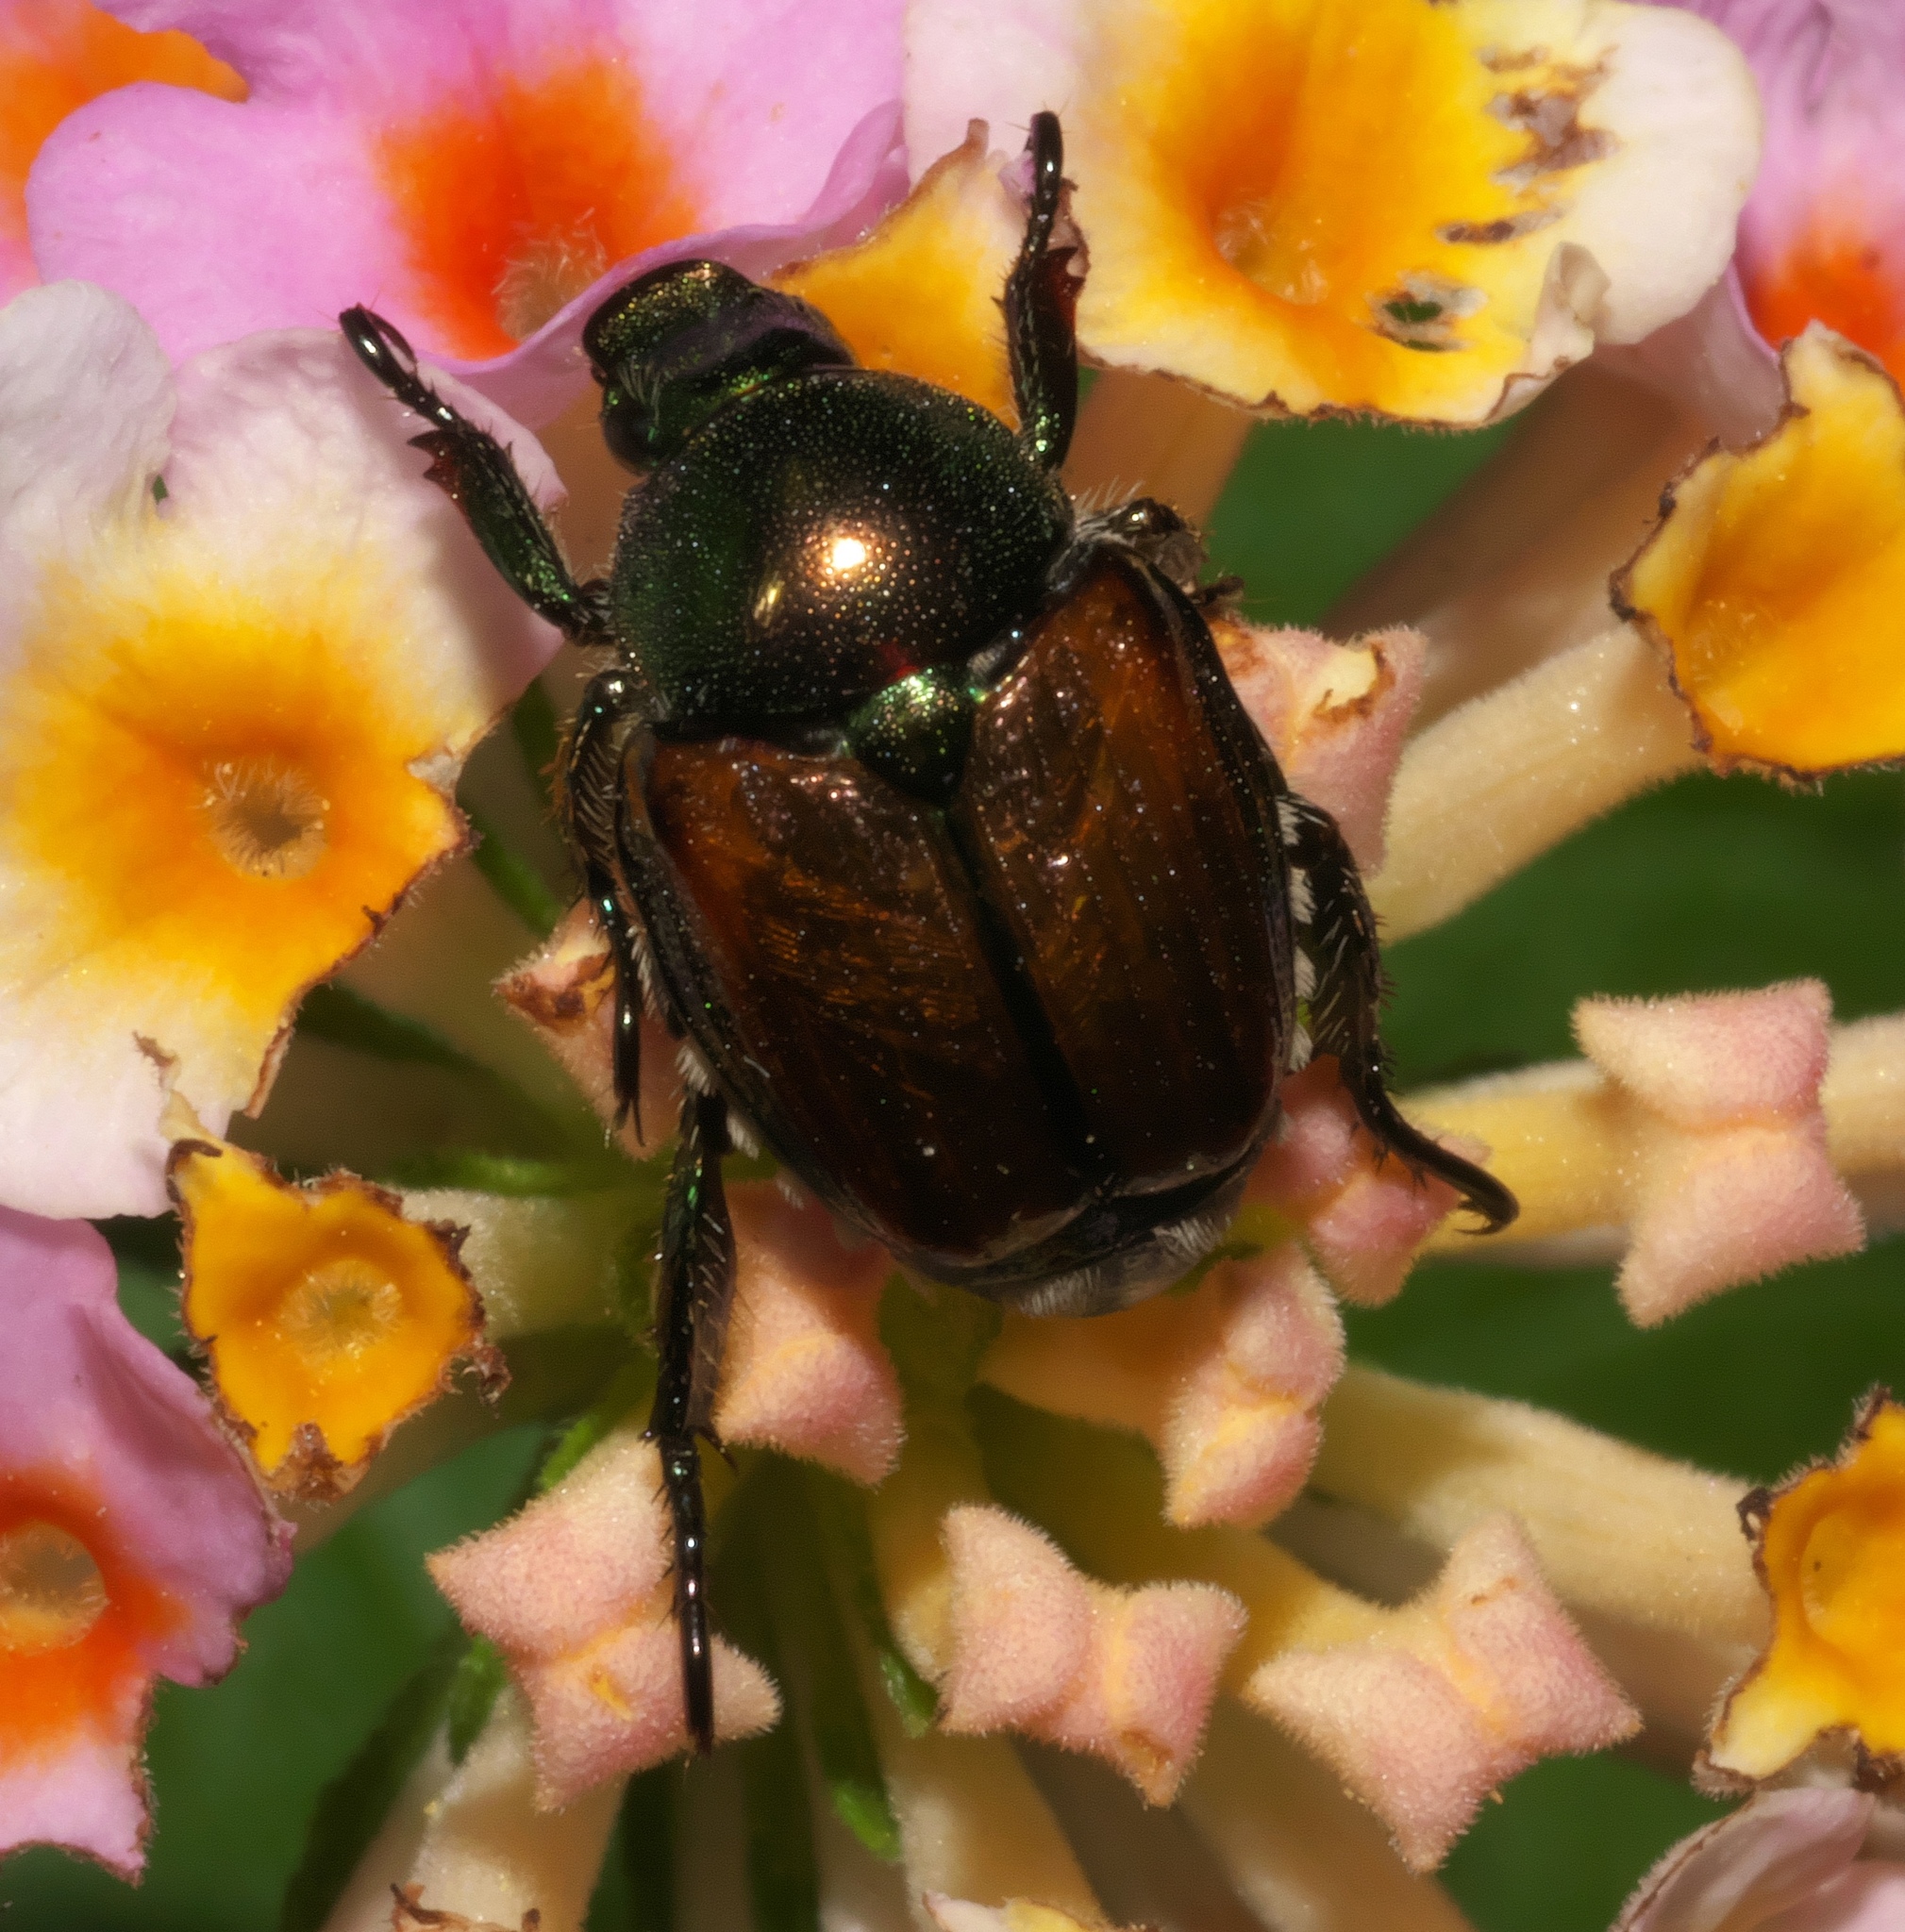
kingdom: Animalia
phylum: Arthropoda
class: Insecta
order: Coleoptera
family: Scarabaeidae
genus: Popillia
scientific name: Popillia japonica
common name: Japanese beetle
